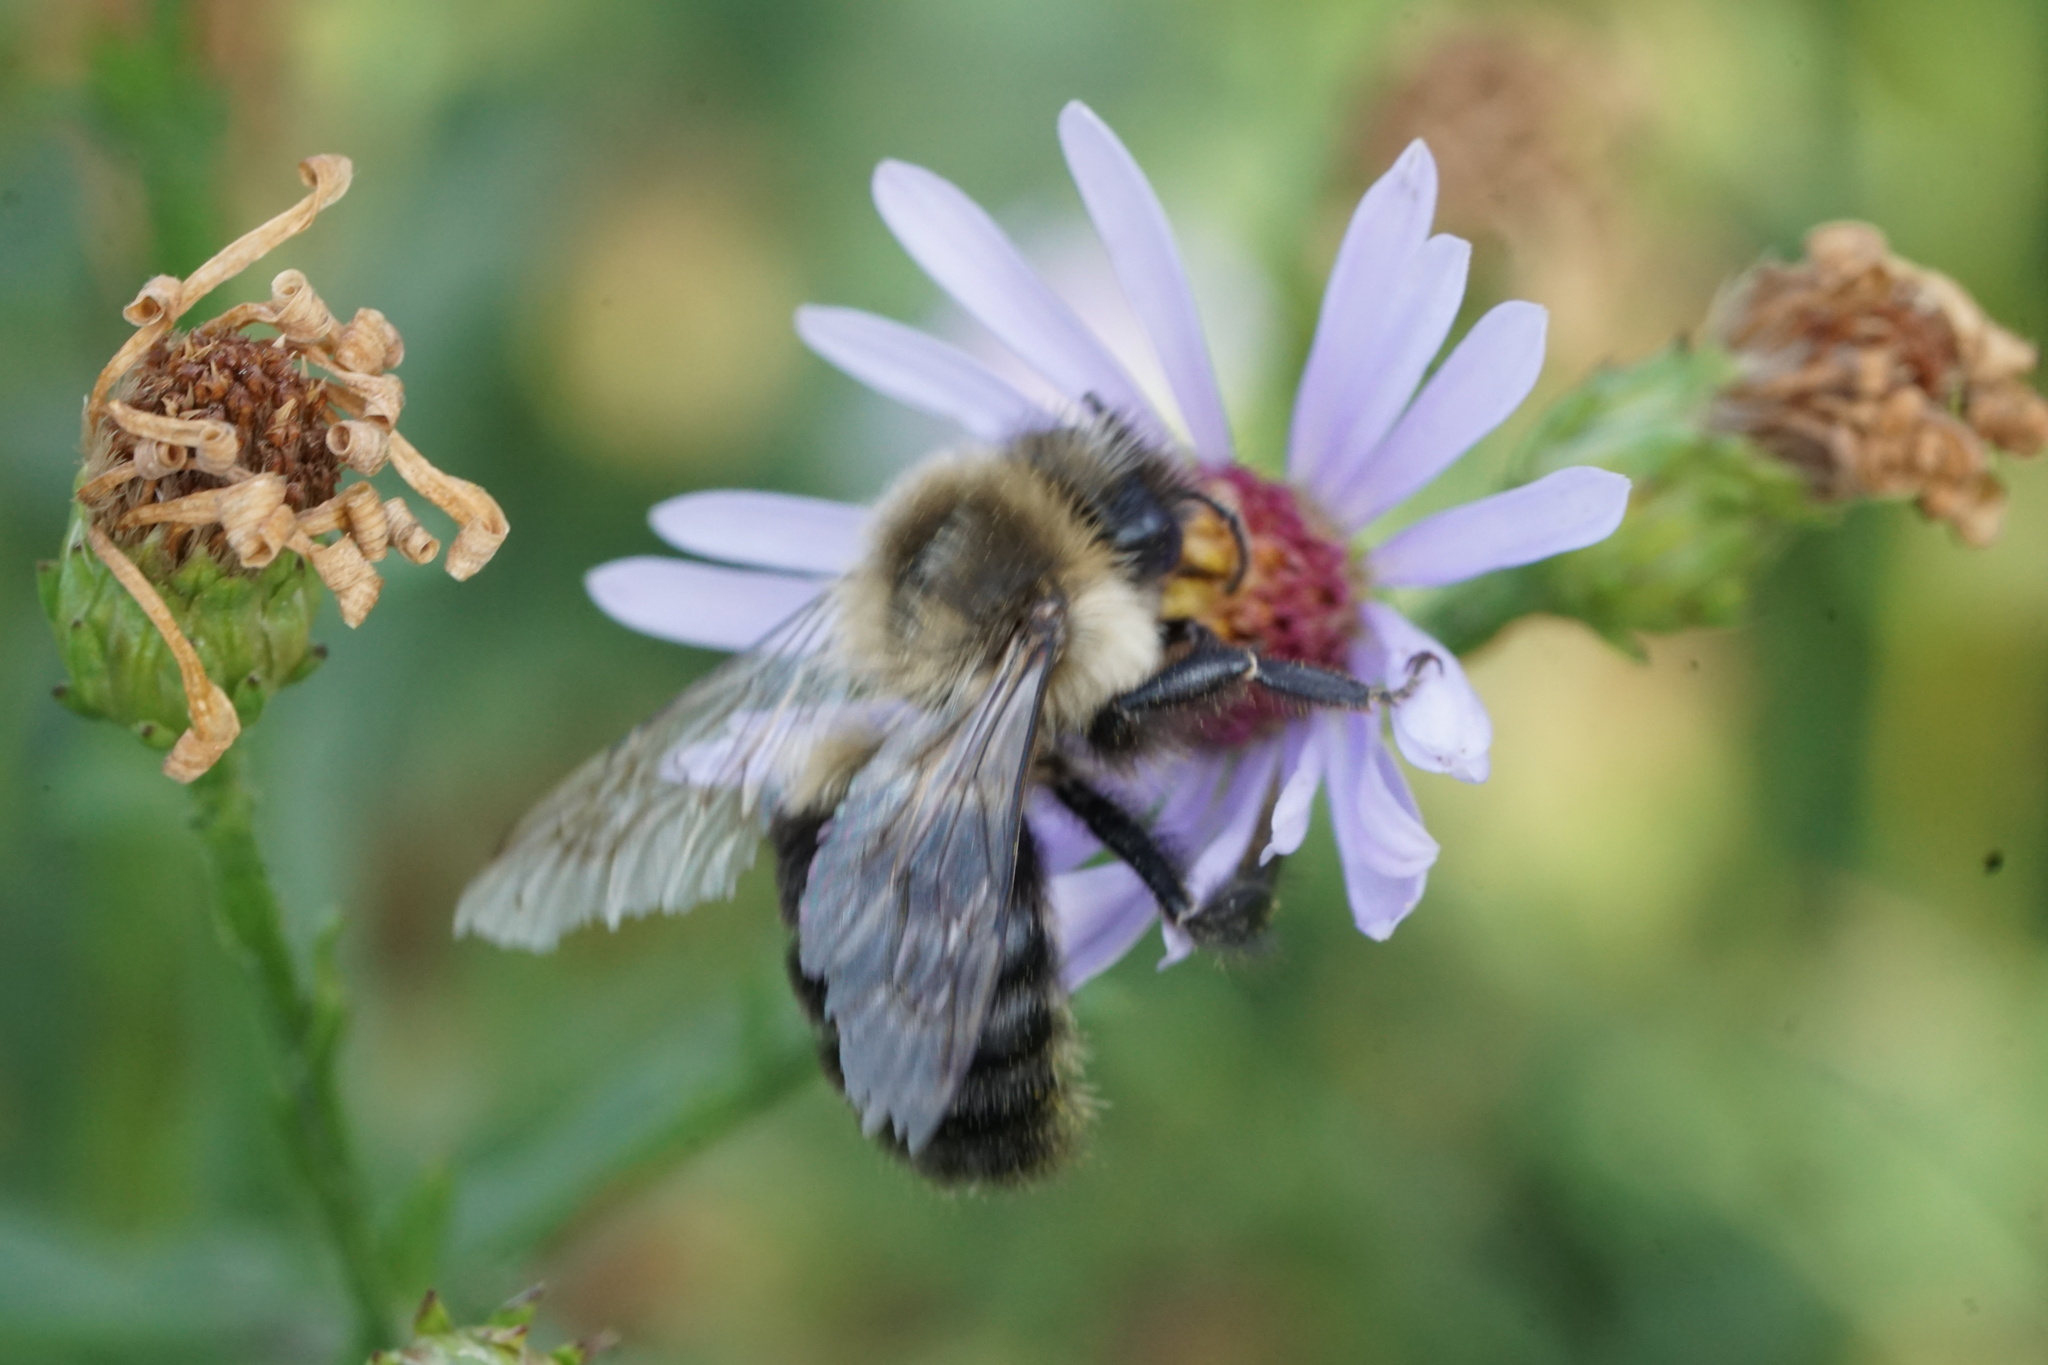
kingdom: Animalia
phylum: Arthropoda
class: Insecta
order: Hymenoptera
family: Apidae
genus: Bombus
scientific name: Bombus impatiens
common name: Common eastern bumble bee
